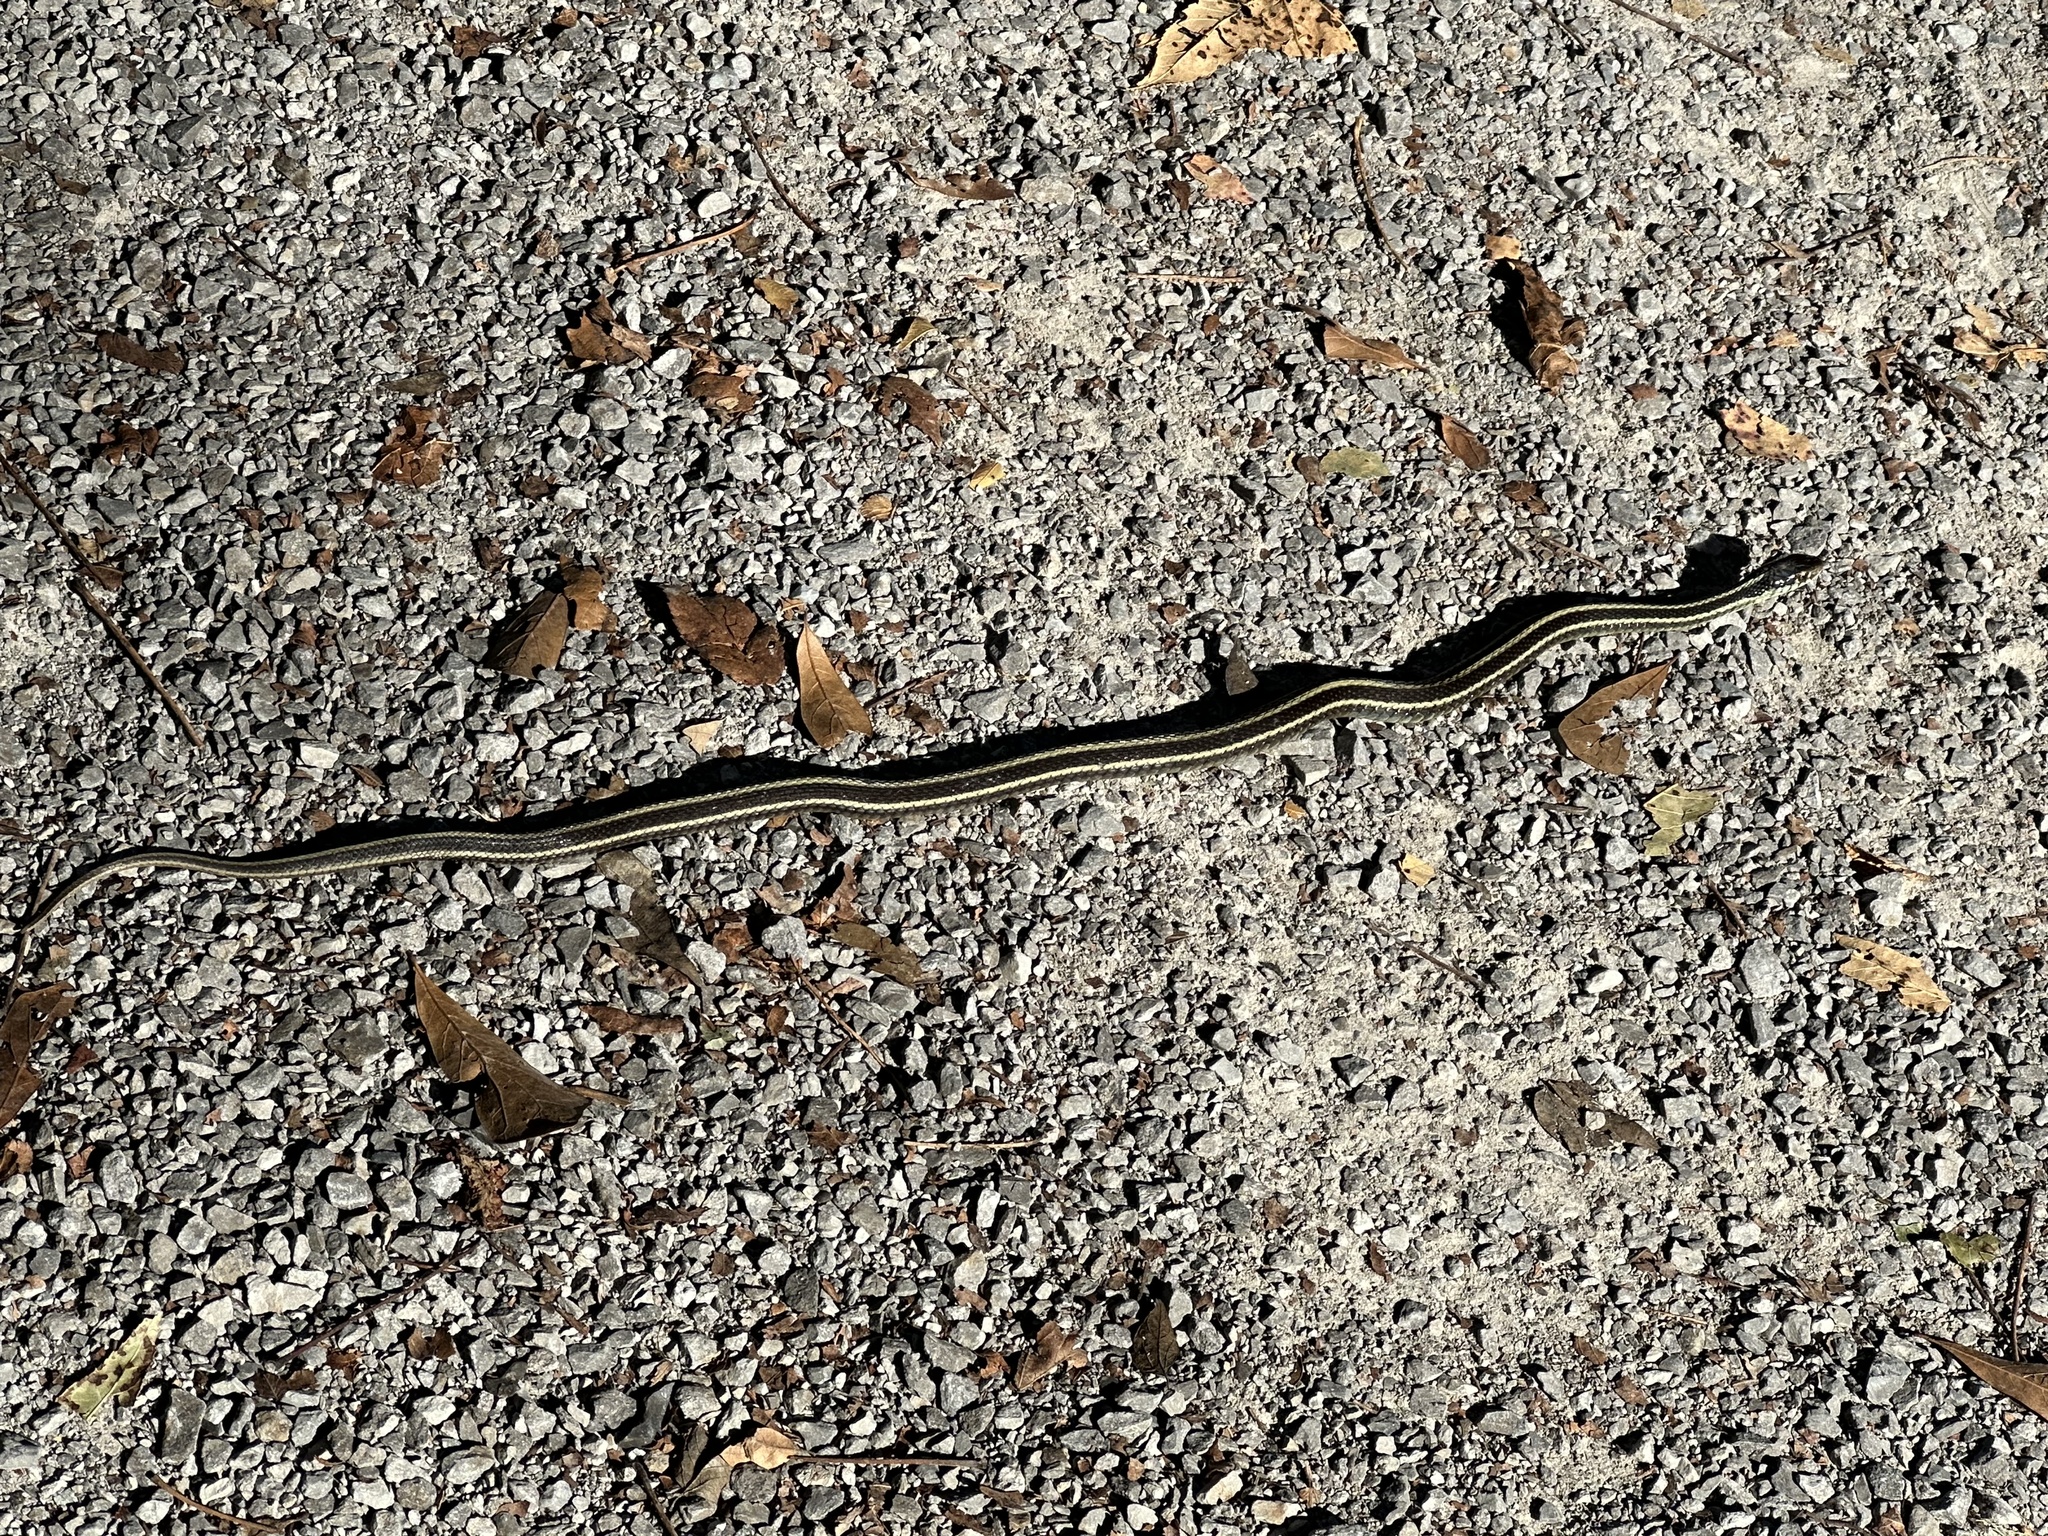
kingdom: Animalia
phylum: Chordata
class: Squamata
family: Colubridae
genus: Thamnophis
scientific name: Thamnophis sirtalis
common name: Common garter snake
